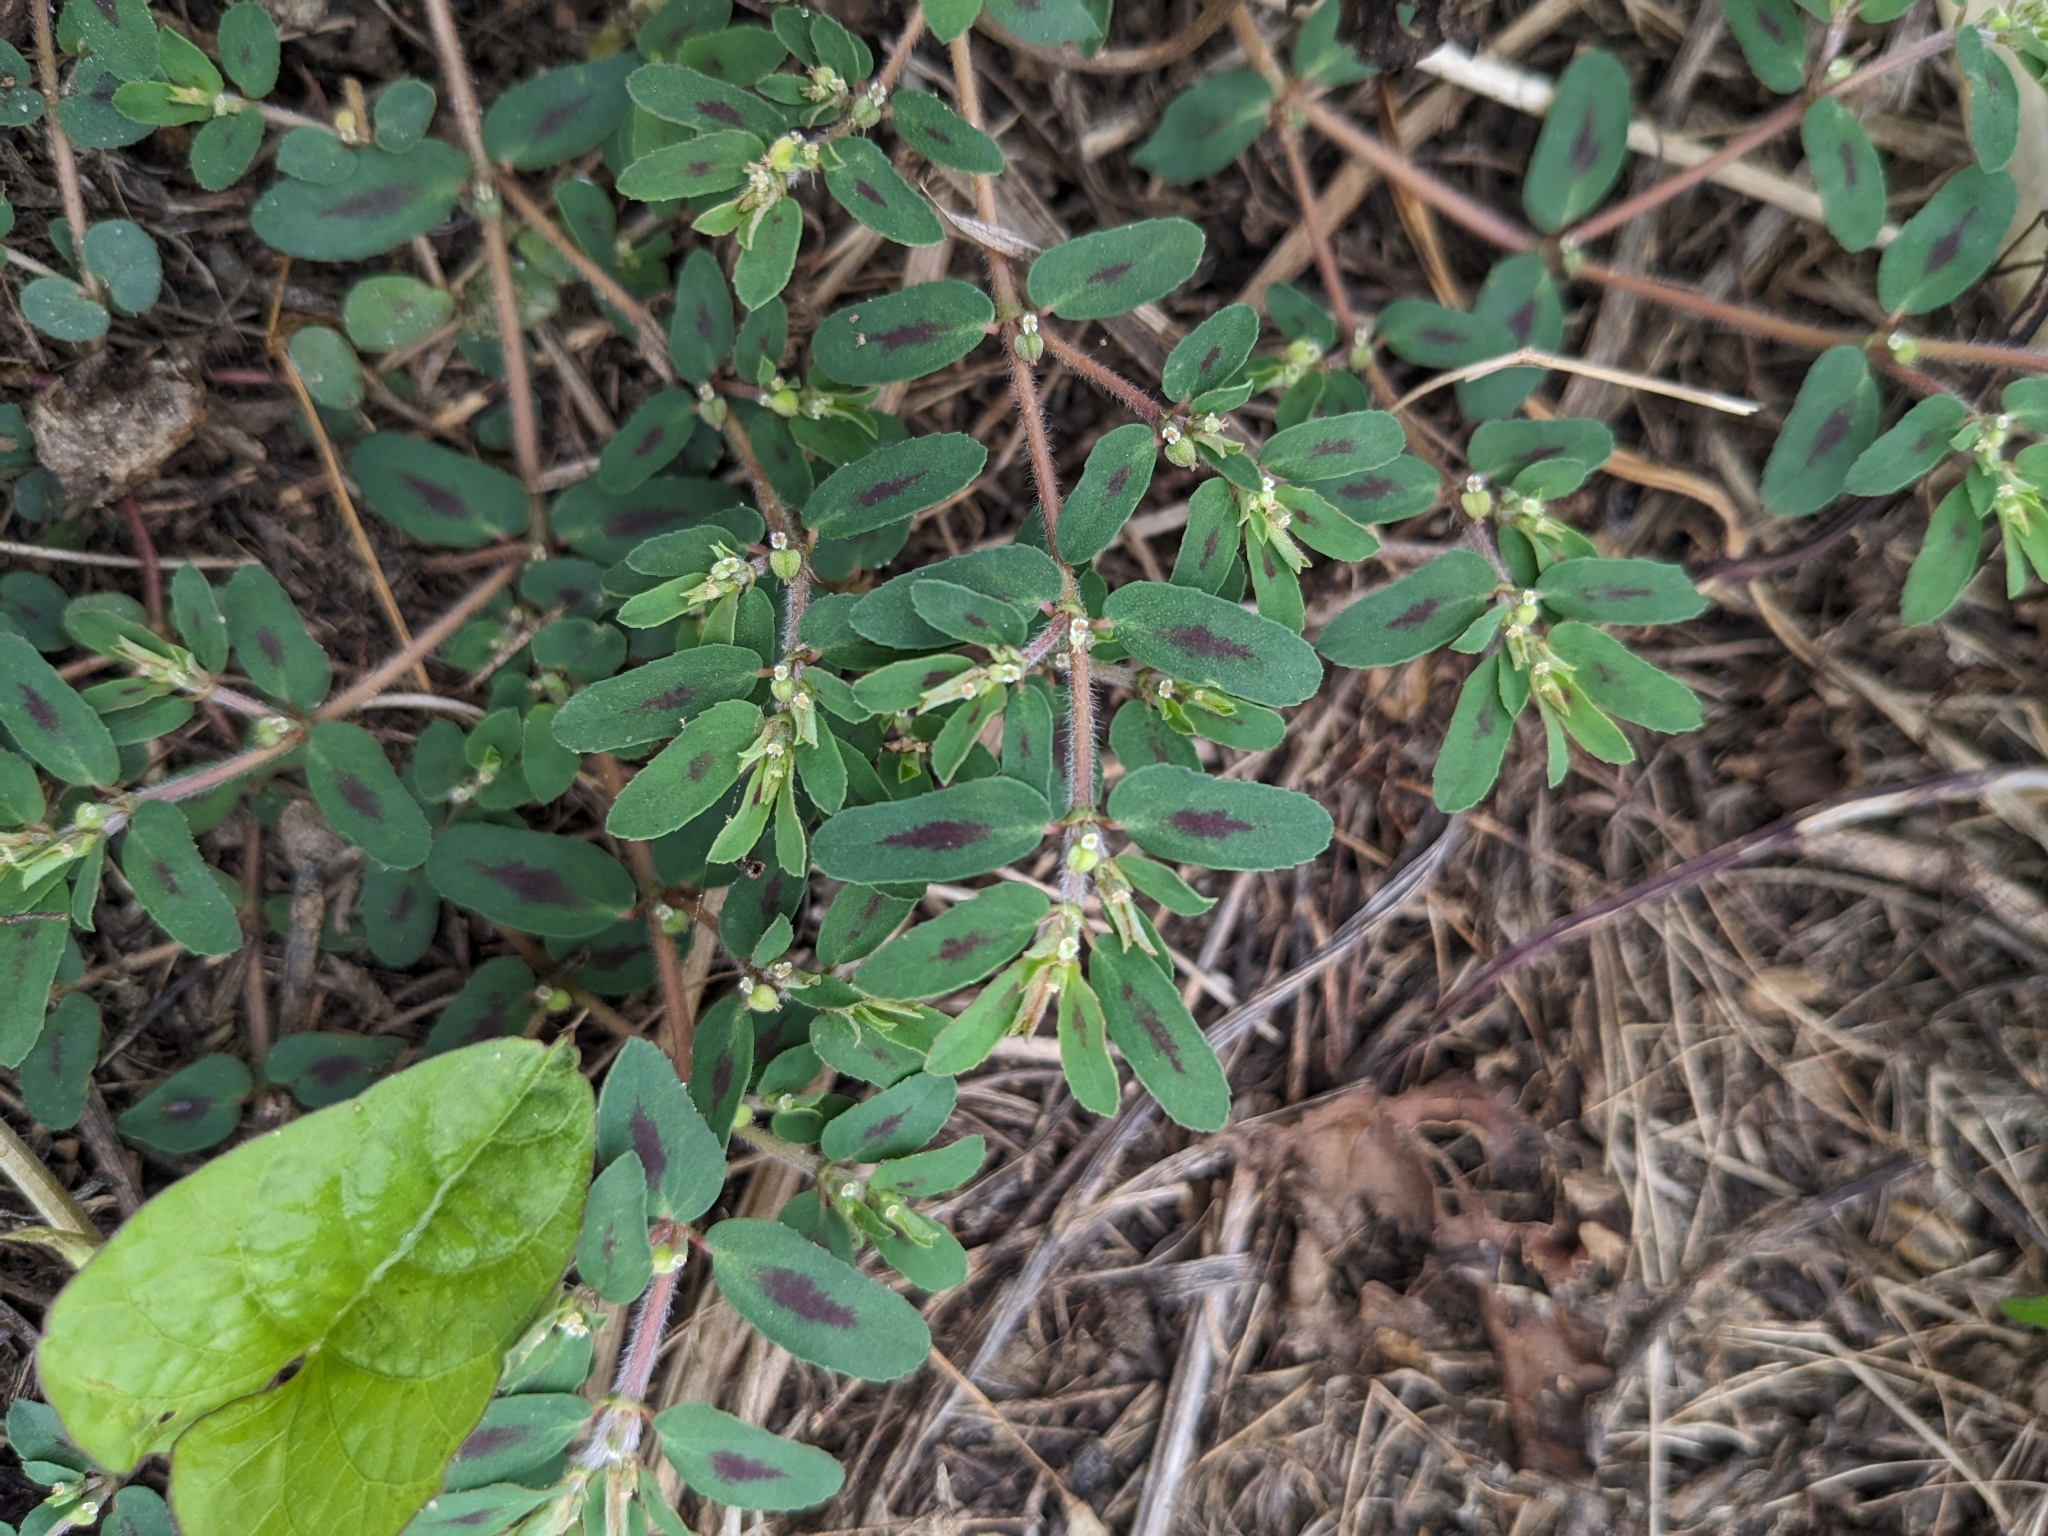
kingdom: Plantae
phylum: Tracheophyta
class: Magnoliopsida
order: Malpighiales
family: Euphorbiaceae
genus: Euphorbia
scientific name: Euphorbia maculata
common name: Spotted spurge
